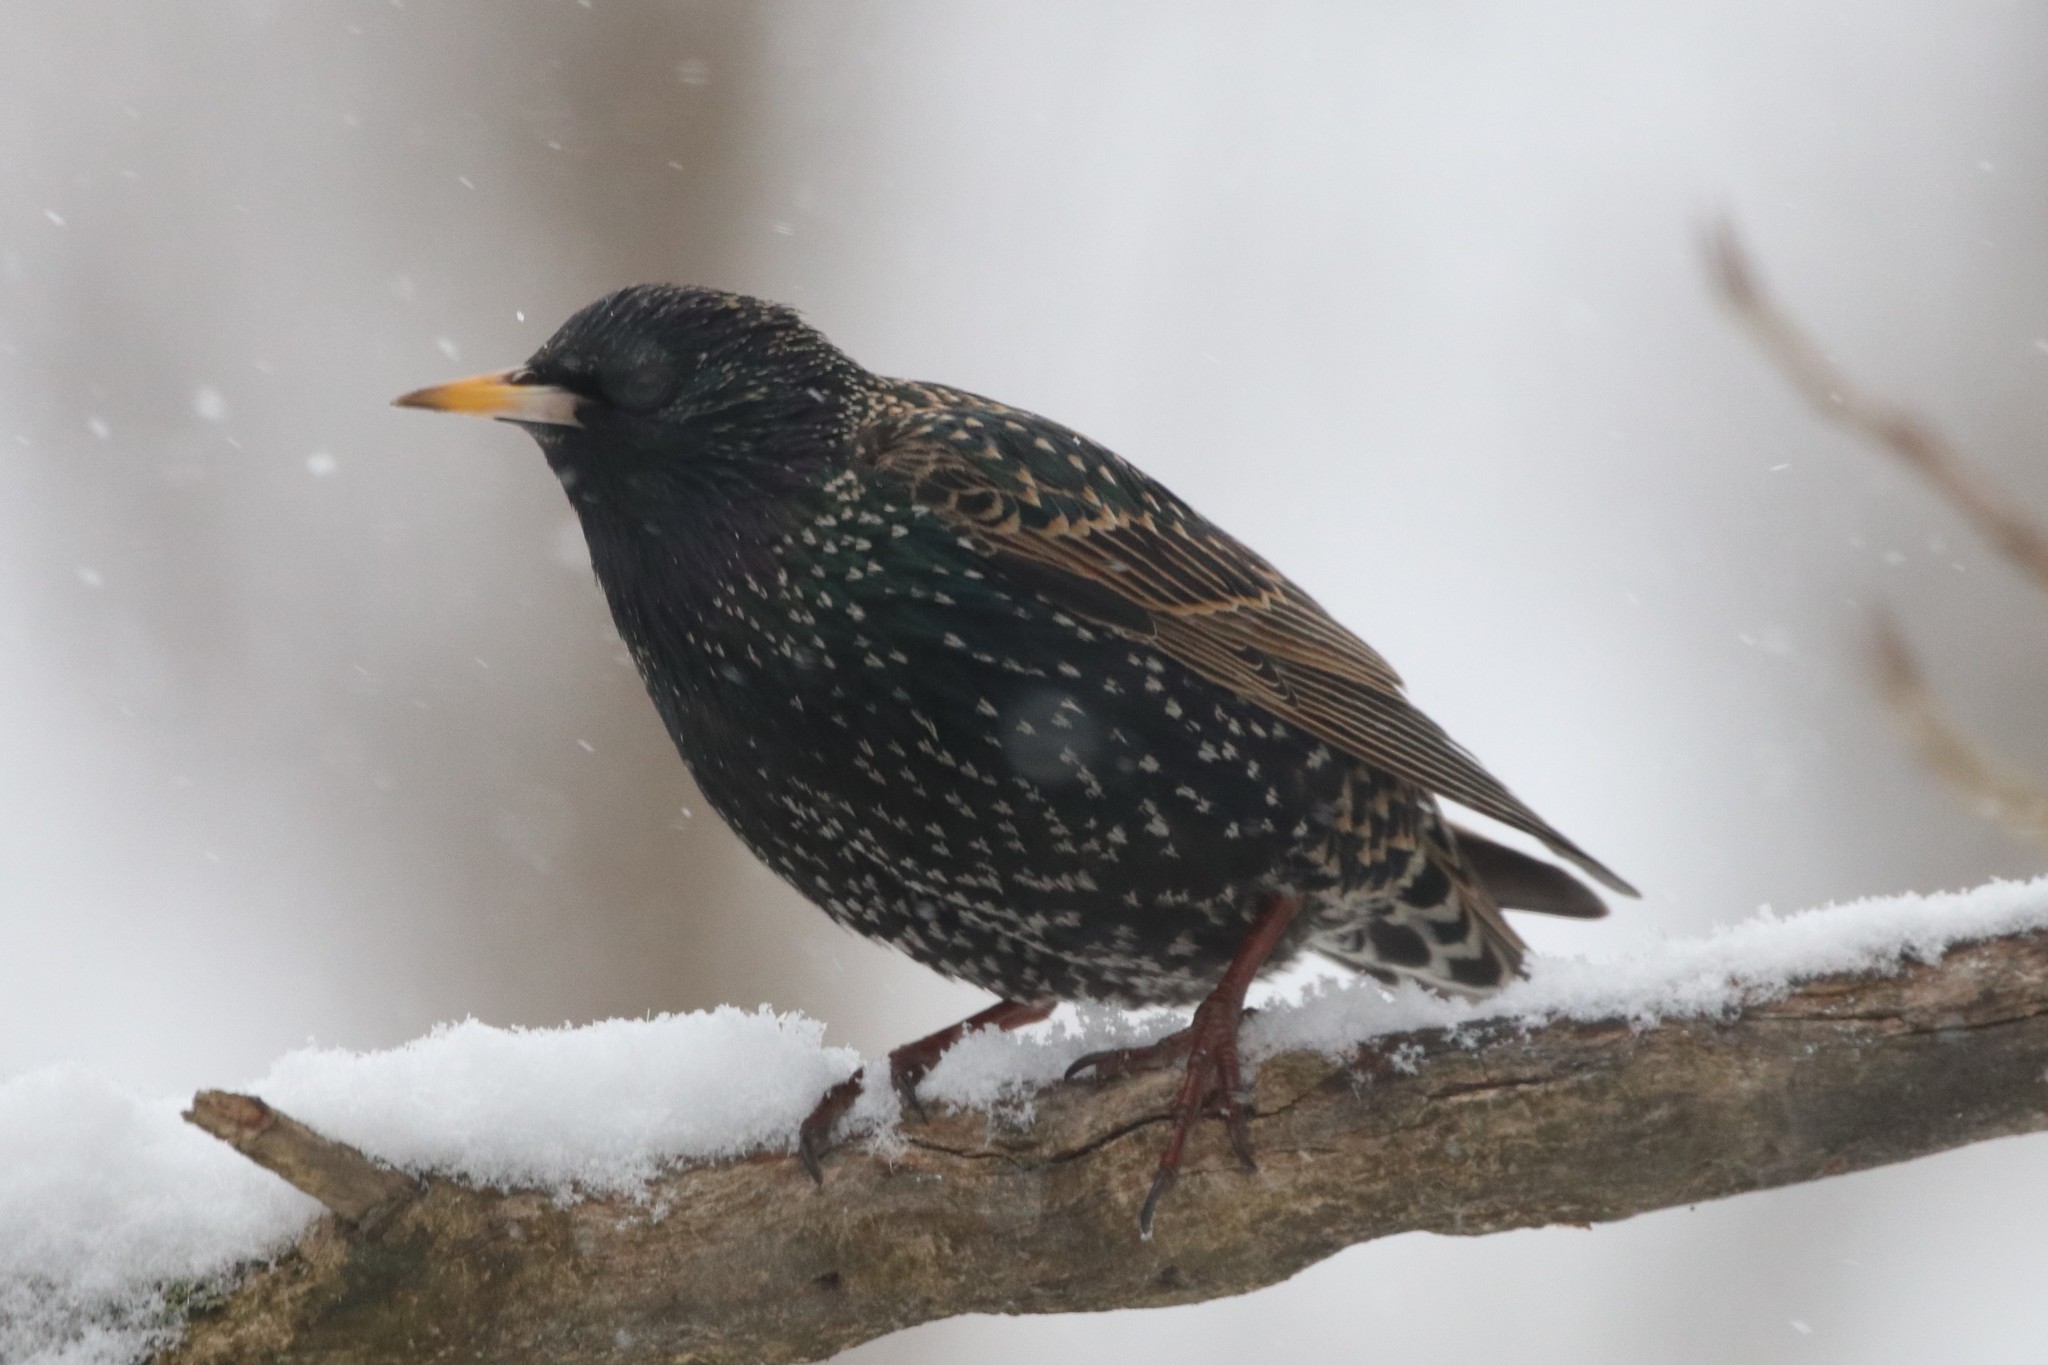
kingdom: Animalia
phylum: Chordata
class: Aves
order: Passeriformes
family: Sturnidae
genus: Sturnus
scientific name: Sturnus vulgaris
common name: Common starling
